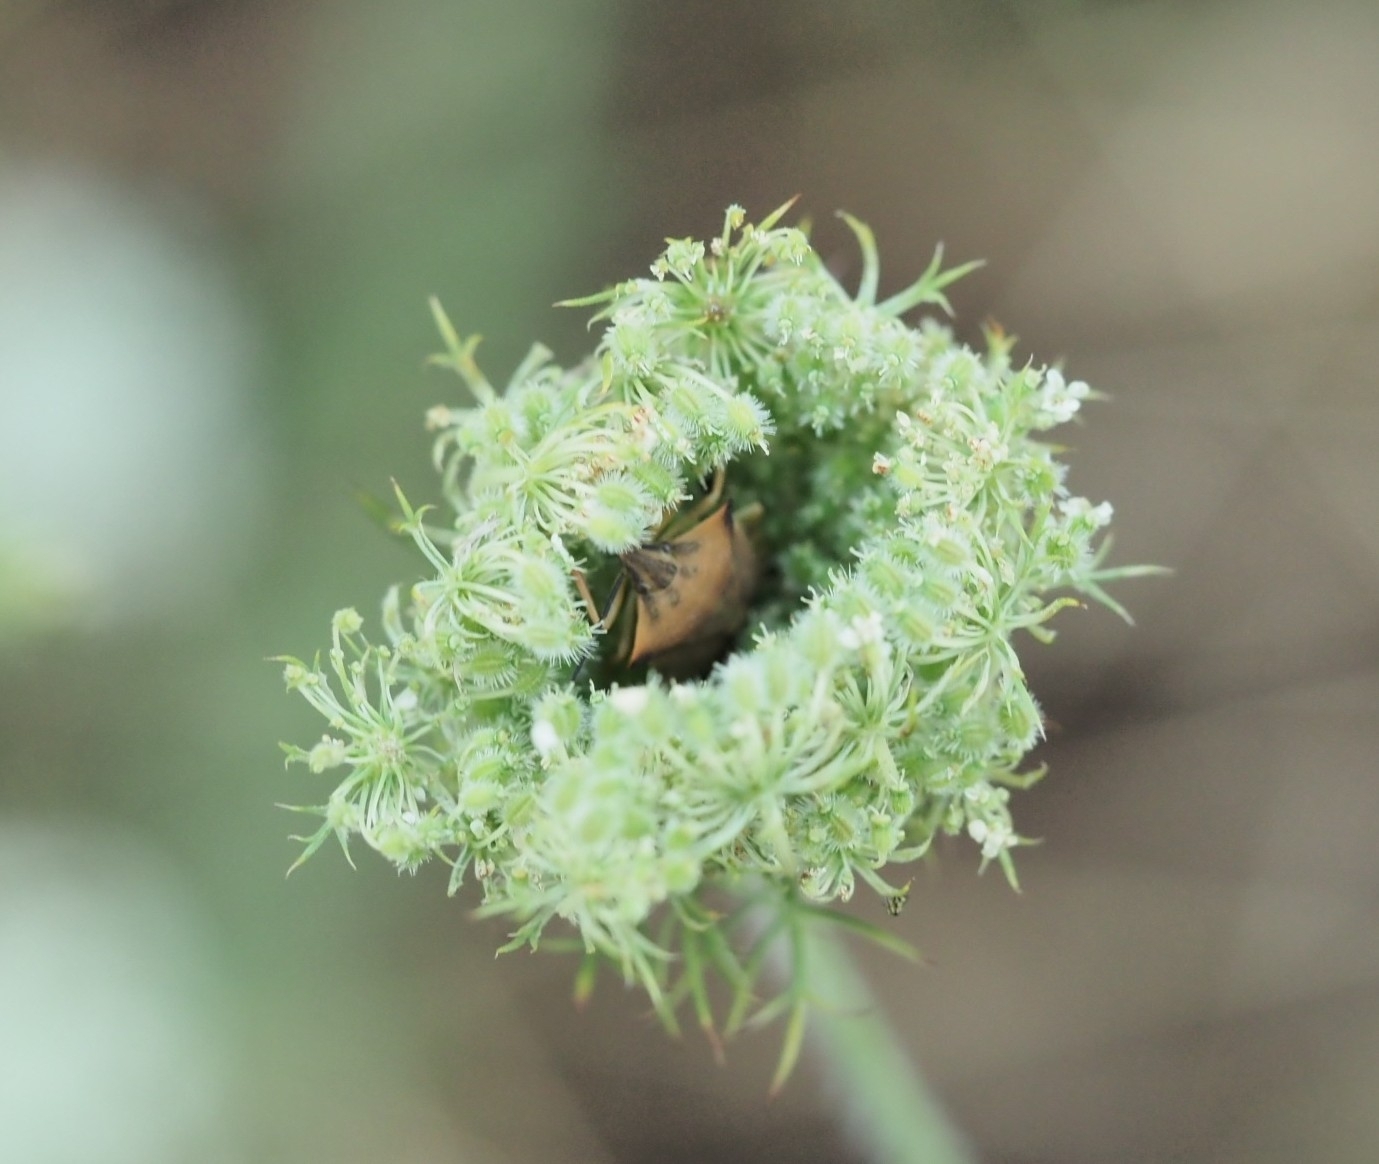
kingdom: Plantae
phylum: Tracheophyta
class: Magnoliopsida
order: Apiales
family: Apiaceae
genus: Daucus
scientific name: Daucus carota
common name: Wild carrot
